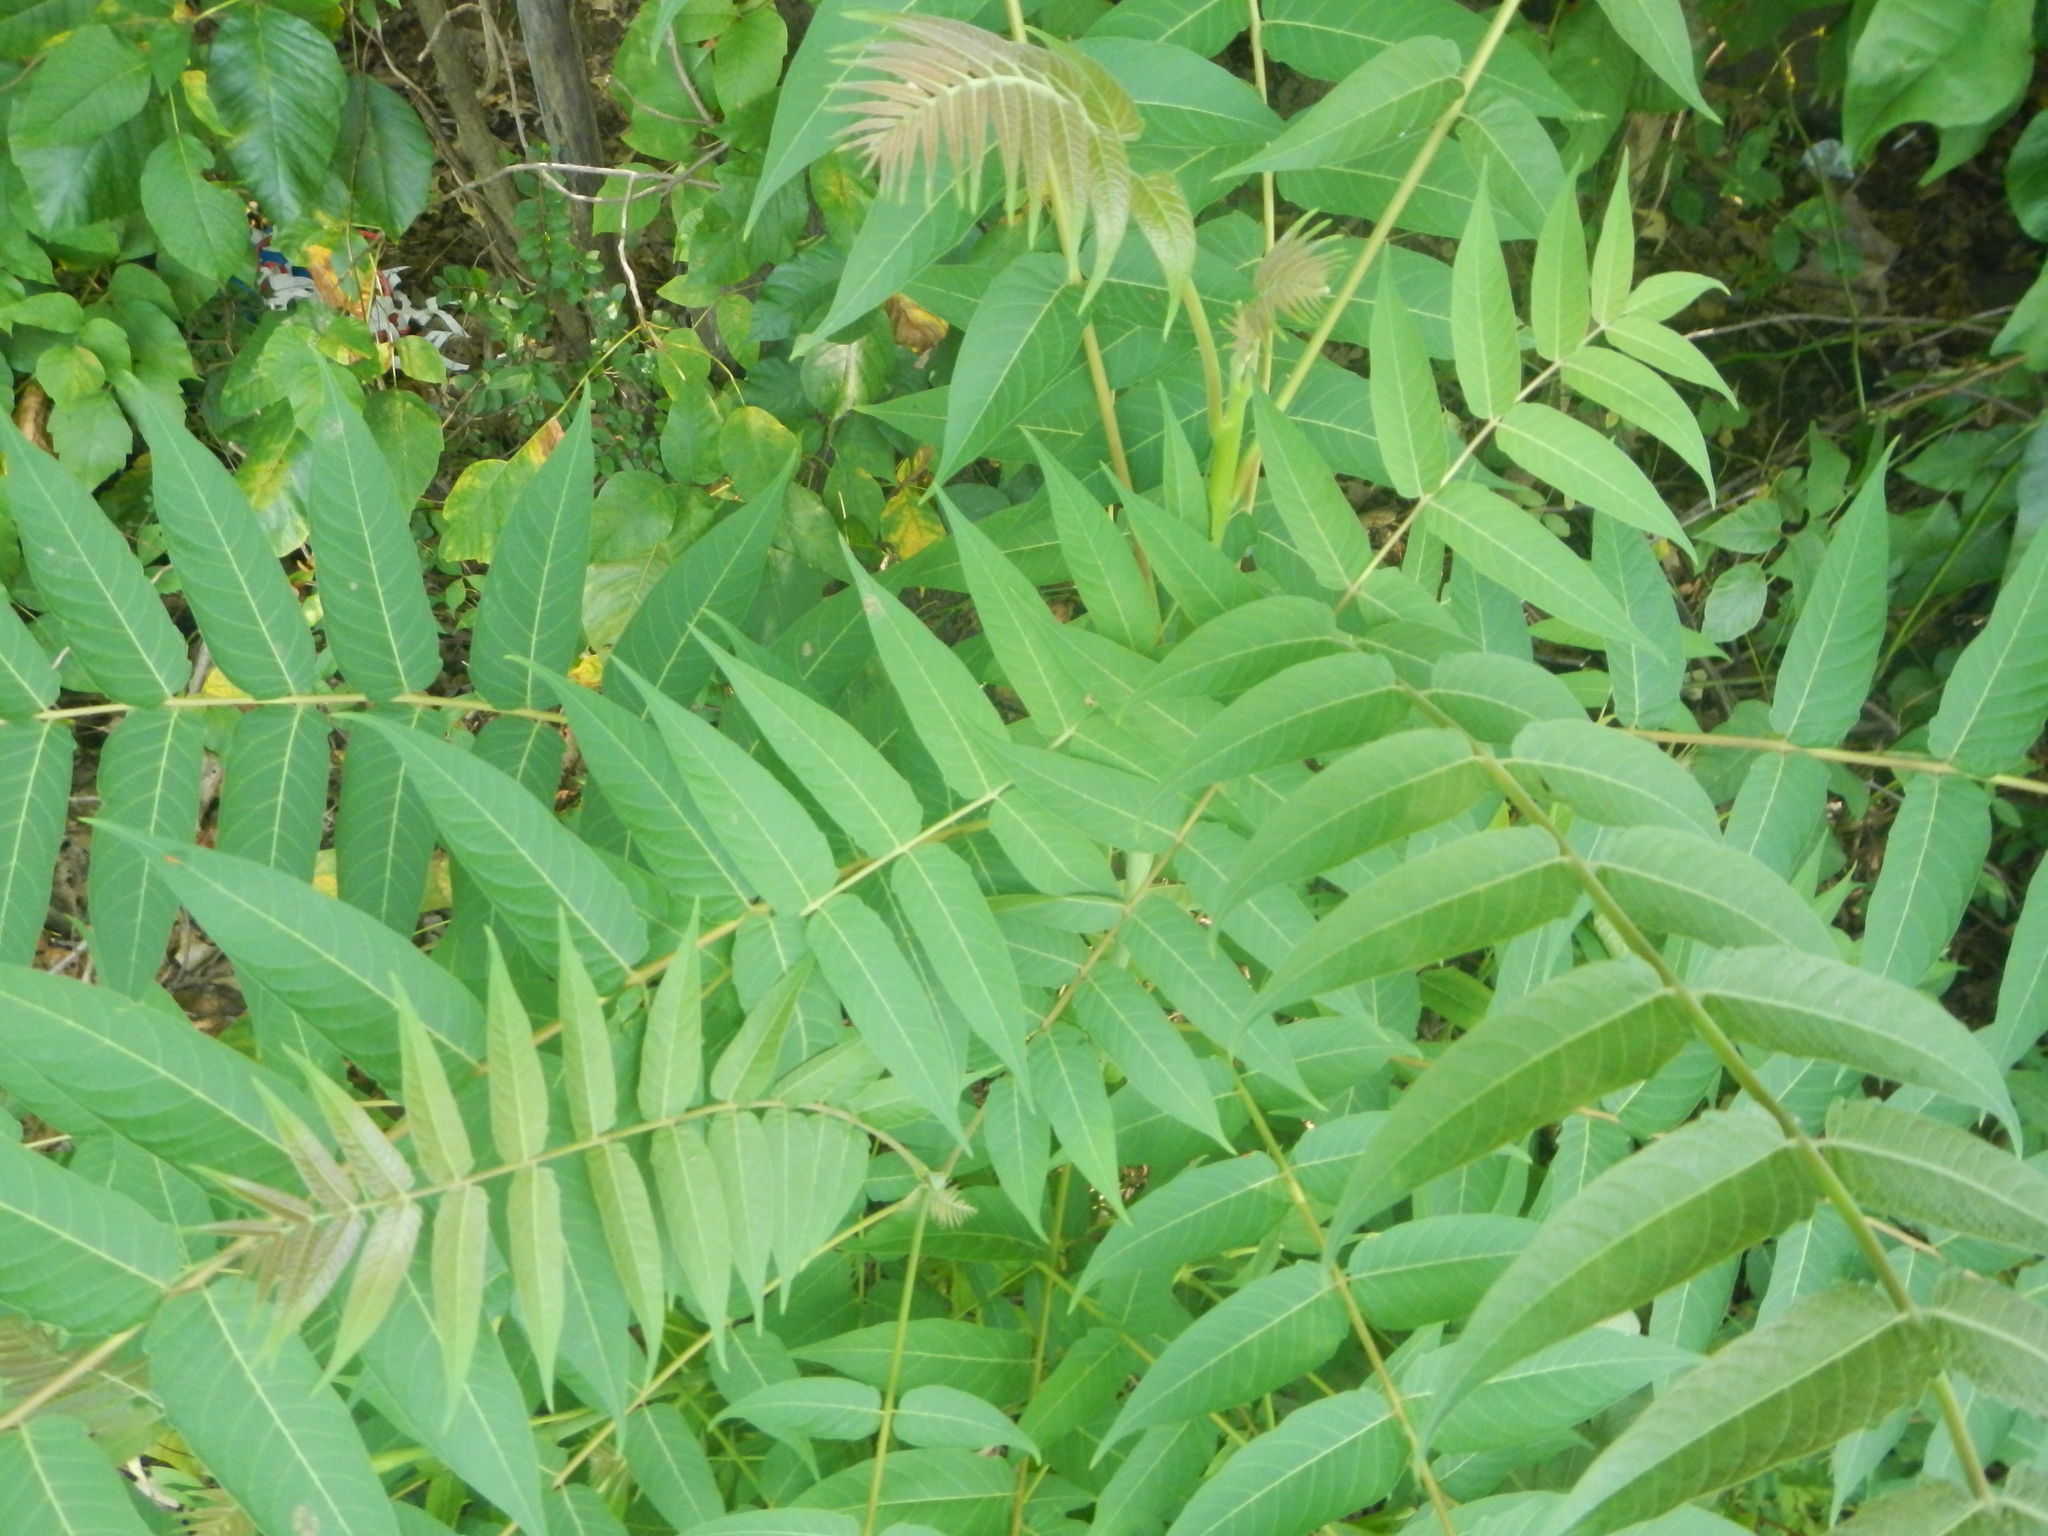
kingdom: Plantae
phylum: Tracheophyta
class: Magnoliopsida
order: Sapindales
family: Simaroubaceae
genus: Ailanthus
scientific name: Ailanthus altissima
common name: Tree-of-heaven
